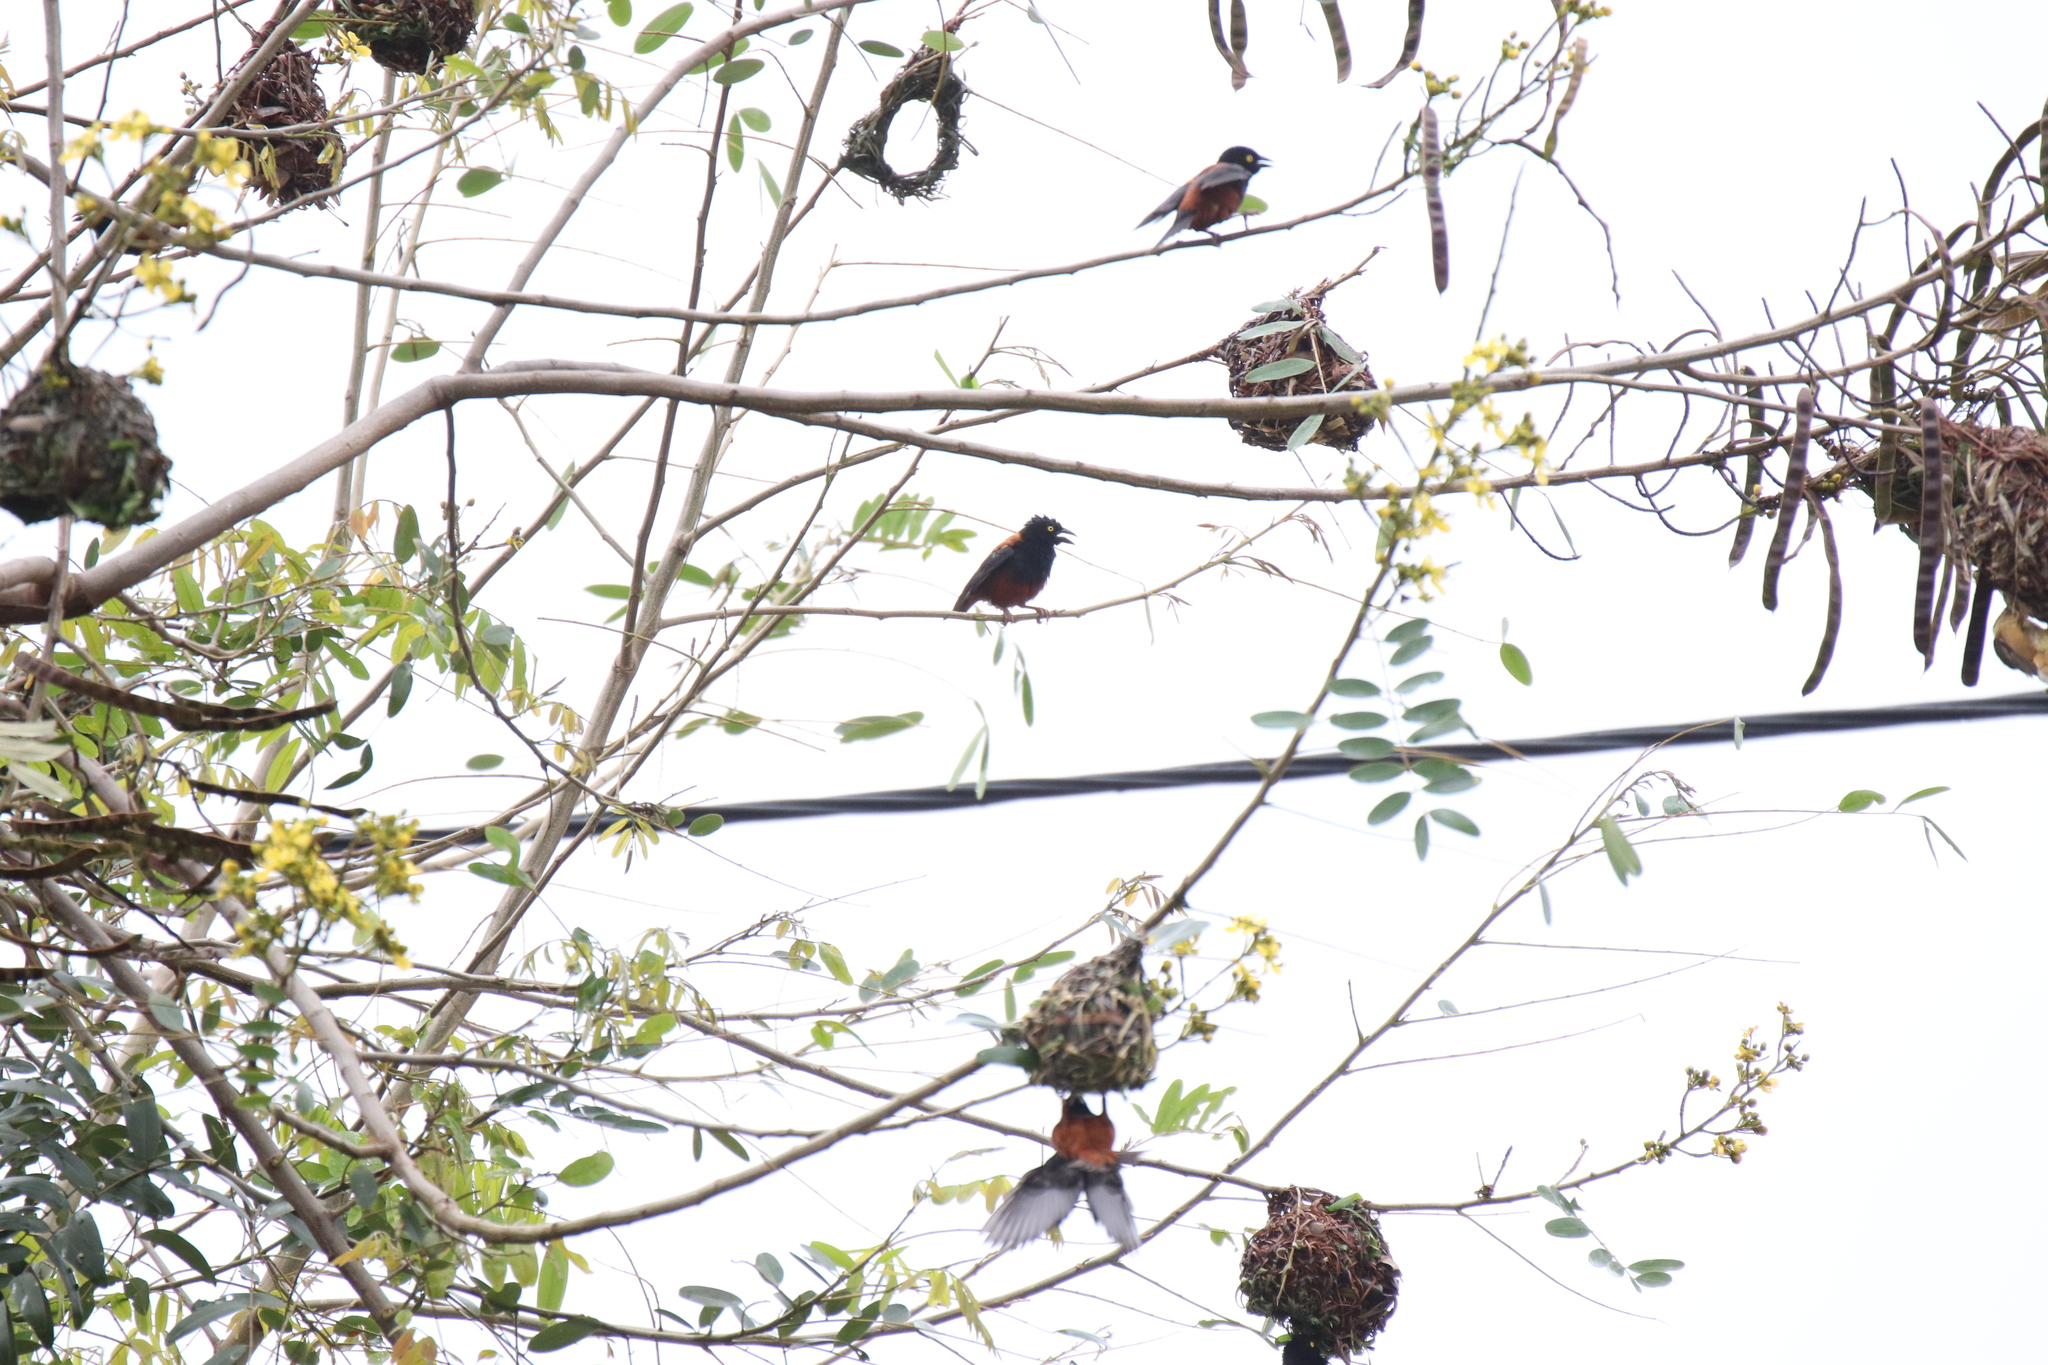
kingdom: Animalia
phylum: Chordata
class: Aves
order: Passeriformes
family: Ploceidae
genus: Ploceus
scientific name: Ploceus castaneofuscus
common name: Chestnut-and-black weaver
